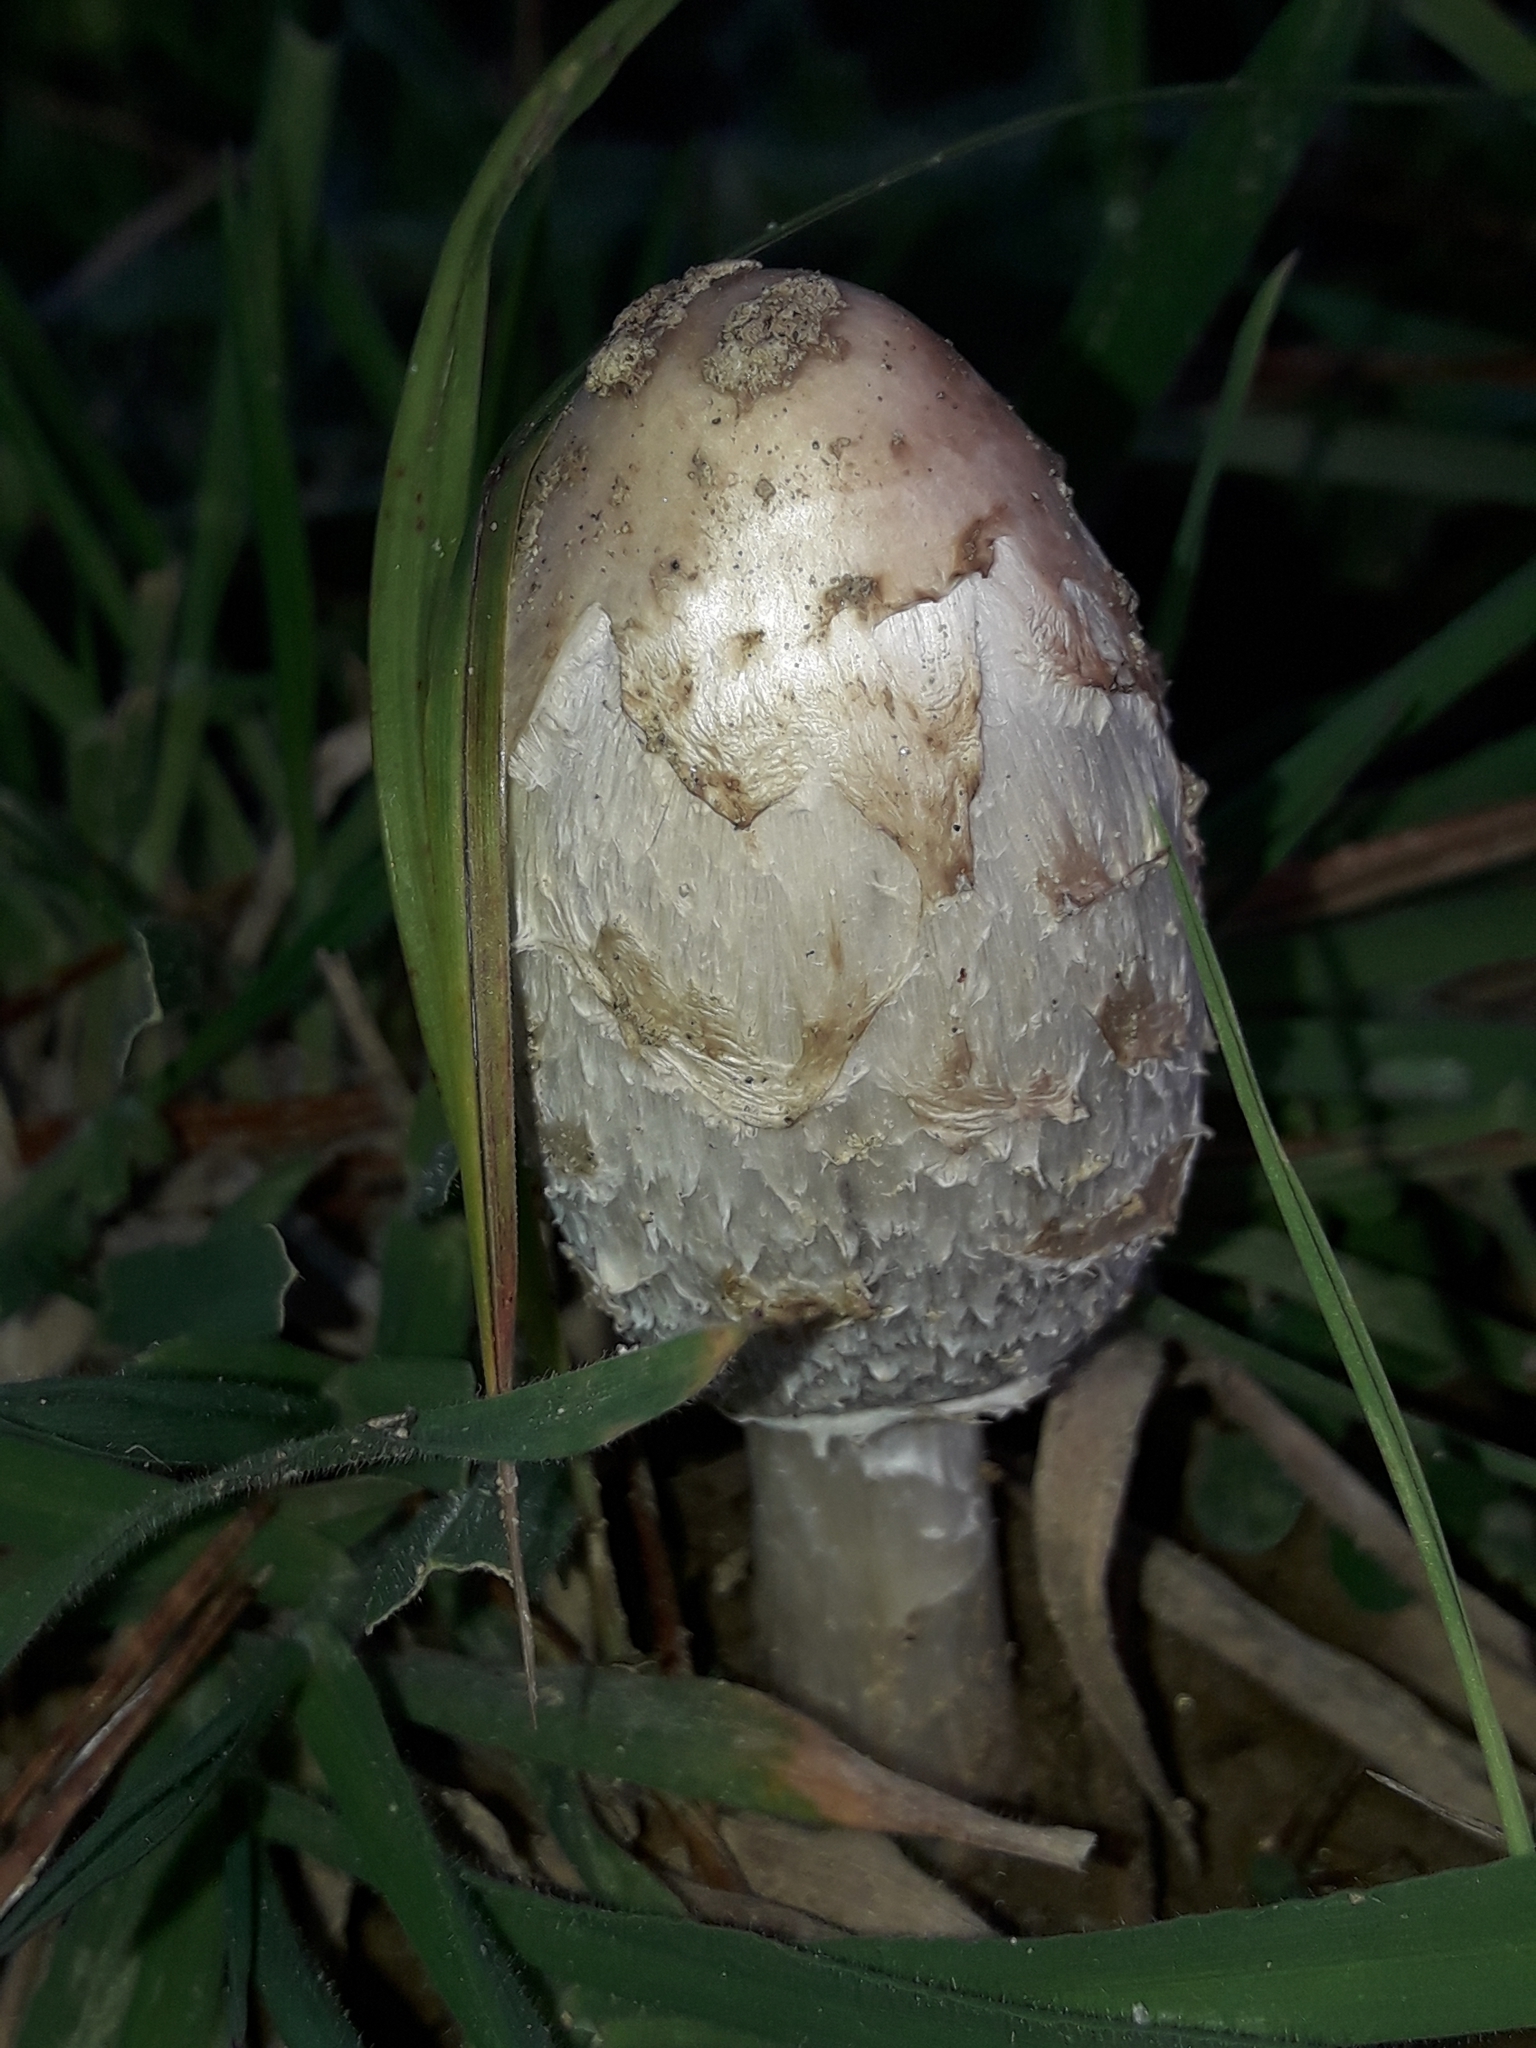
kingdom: Fungi
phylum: Basidiomycota
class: Agaricomycetes
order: Agaricales
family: Agaricaceae
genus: Coprinus
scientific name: Coprinus comatus
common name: Lawyer's wig
